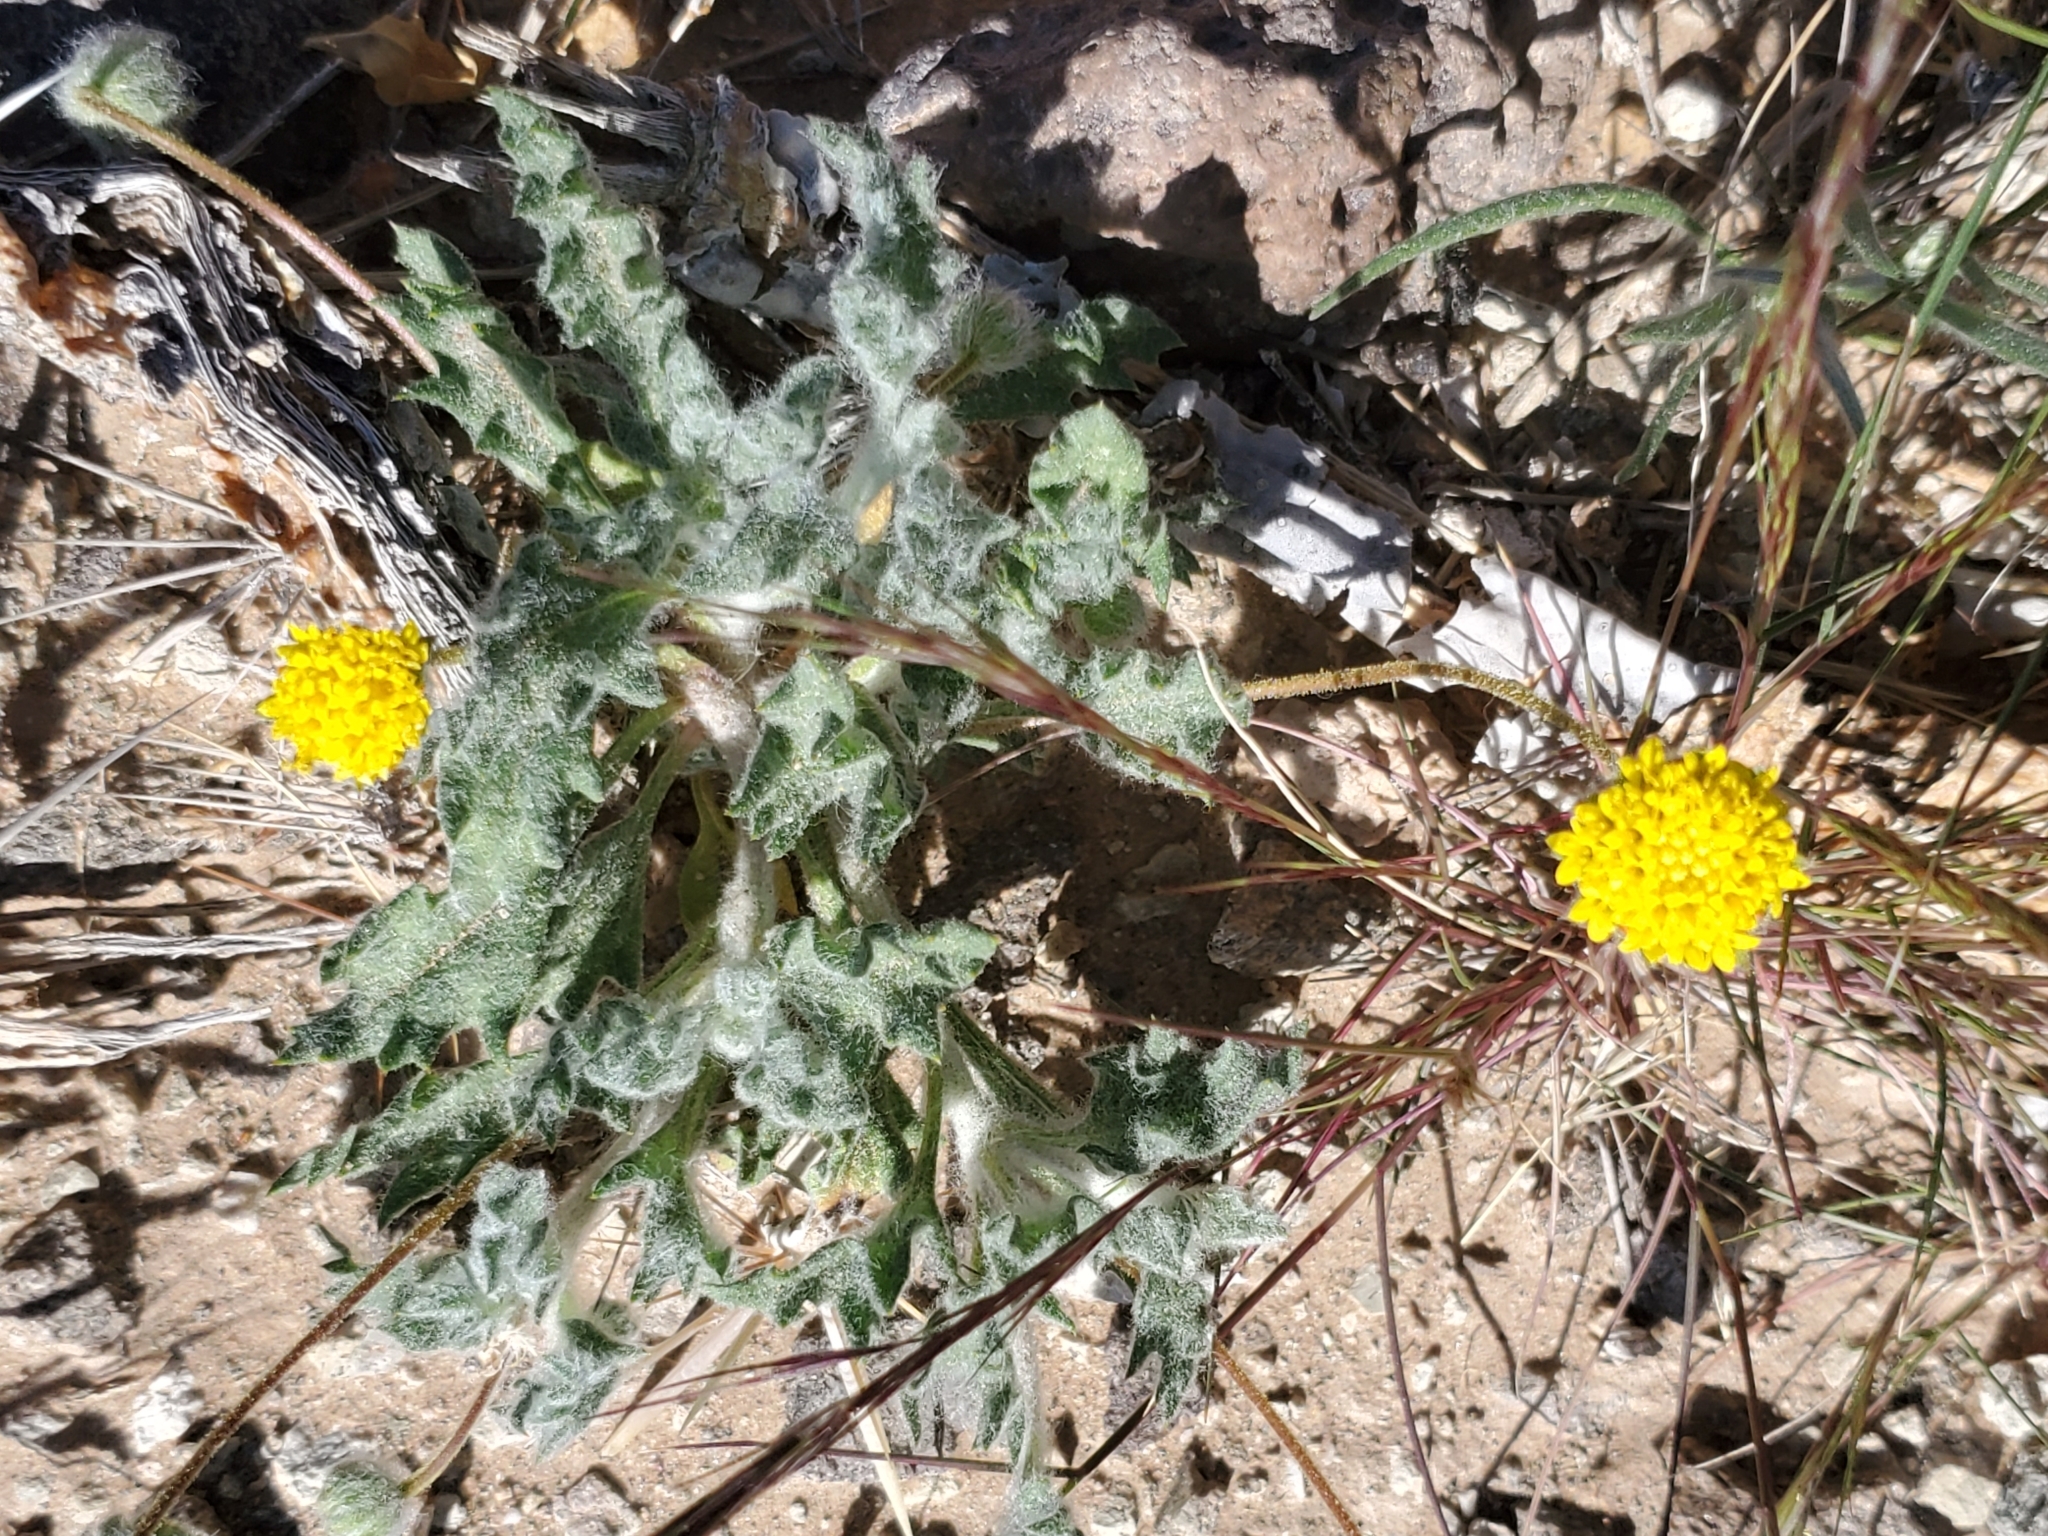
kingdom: Plantae
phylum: Tracheophyta
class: Magnoliopsida
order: Asterales
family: Asteraceae
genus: Trichoptilium
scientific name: Trichoptilium incisum
